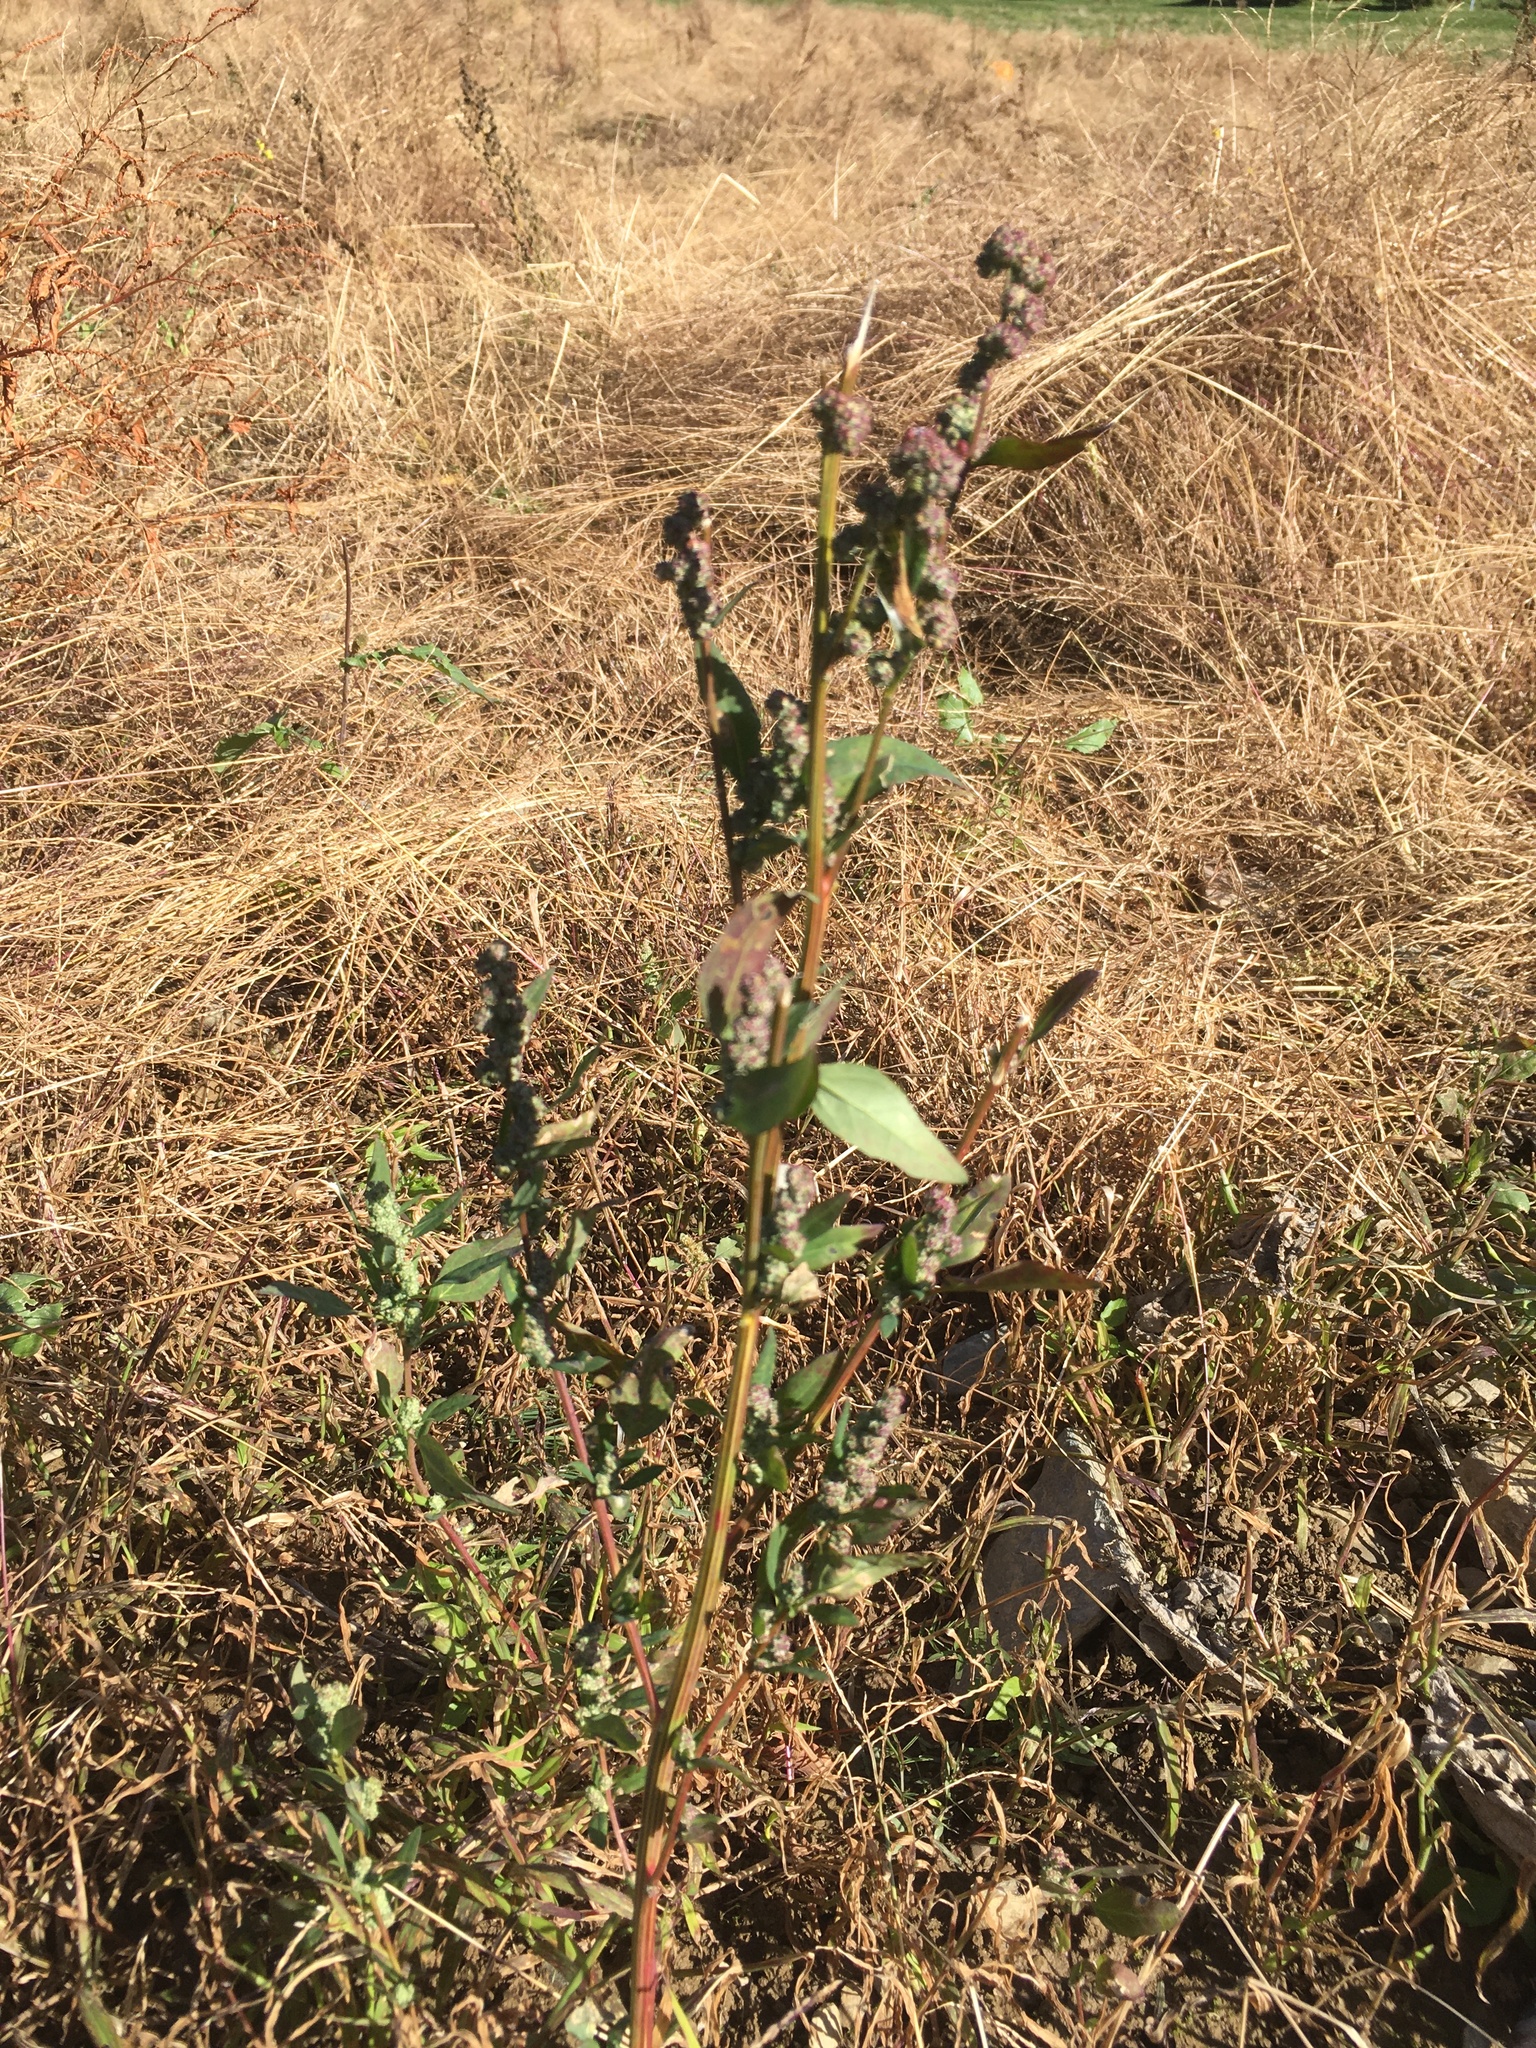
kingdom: Plantae
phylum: Tracheophyta
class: Magnoliopsida
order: Caryophyllales
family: Amaranthaceae
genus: Chenopodium
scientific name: Chenopodium album
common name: Fat-hen
